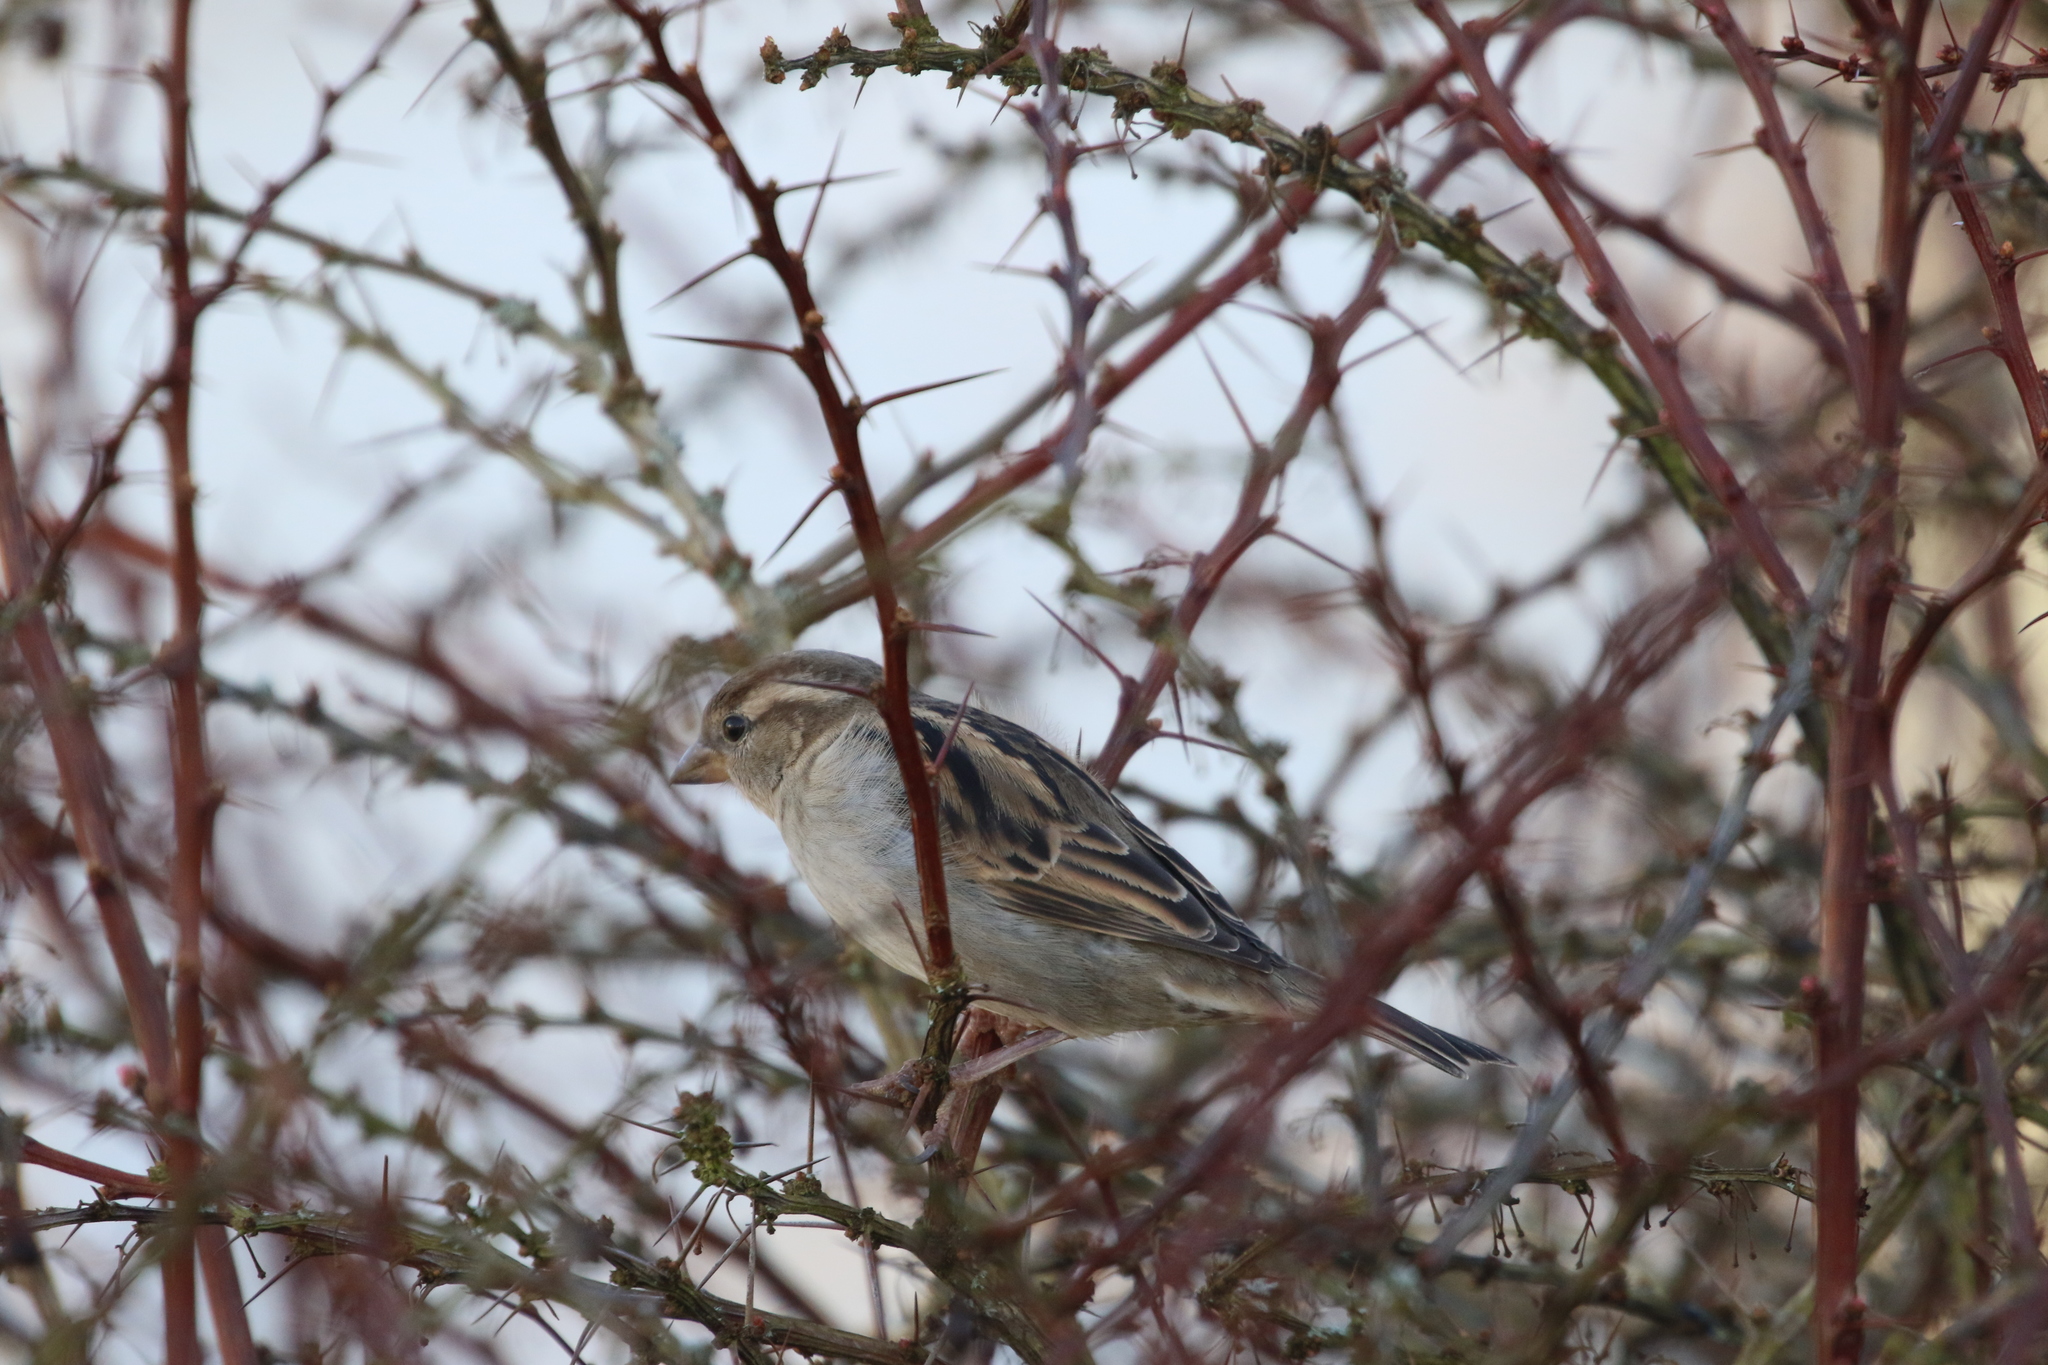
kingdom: Animalia
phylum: Chordata
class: Aves
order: Passeriformes
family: Passeridae
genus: Passer
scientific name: Passer domesticus
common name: House sparrow
